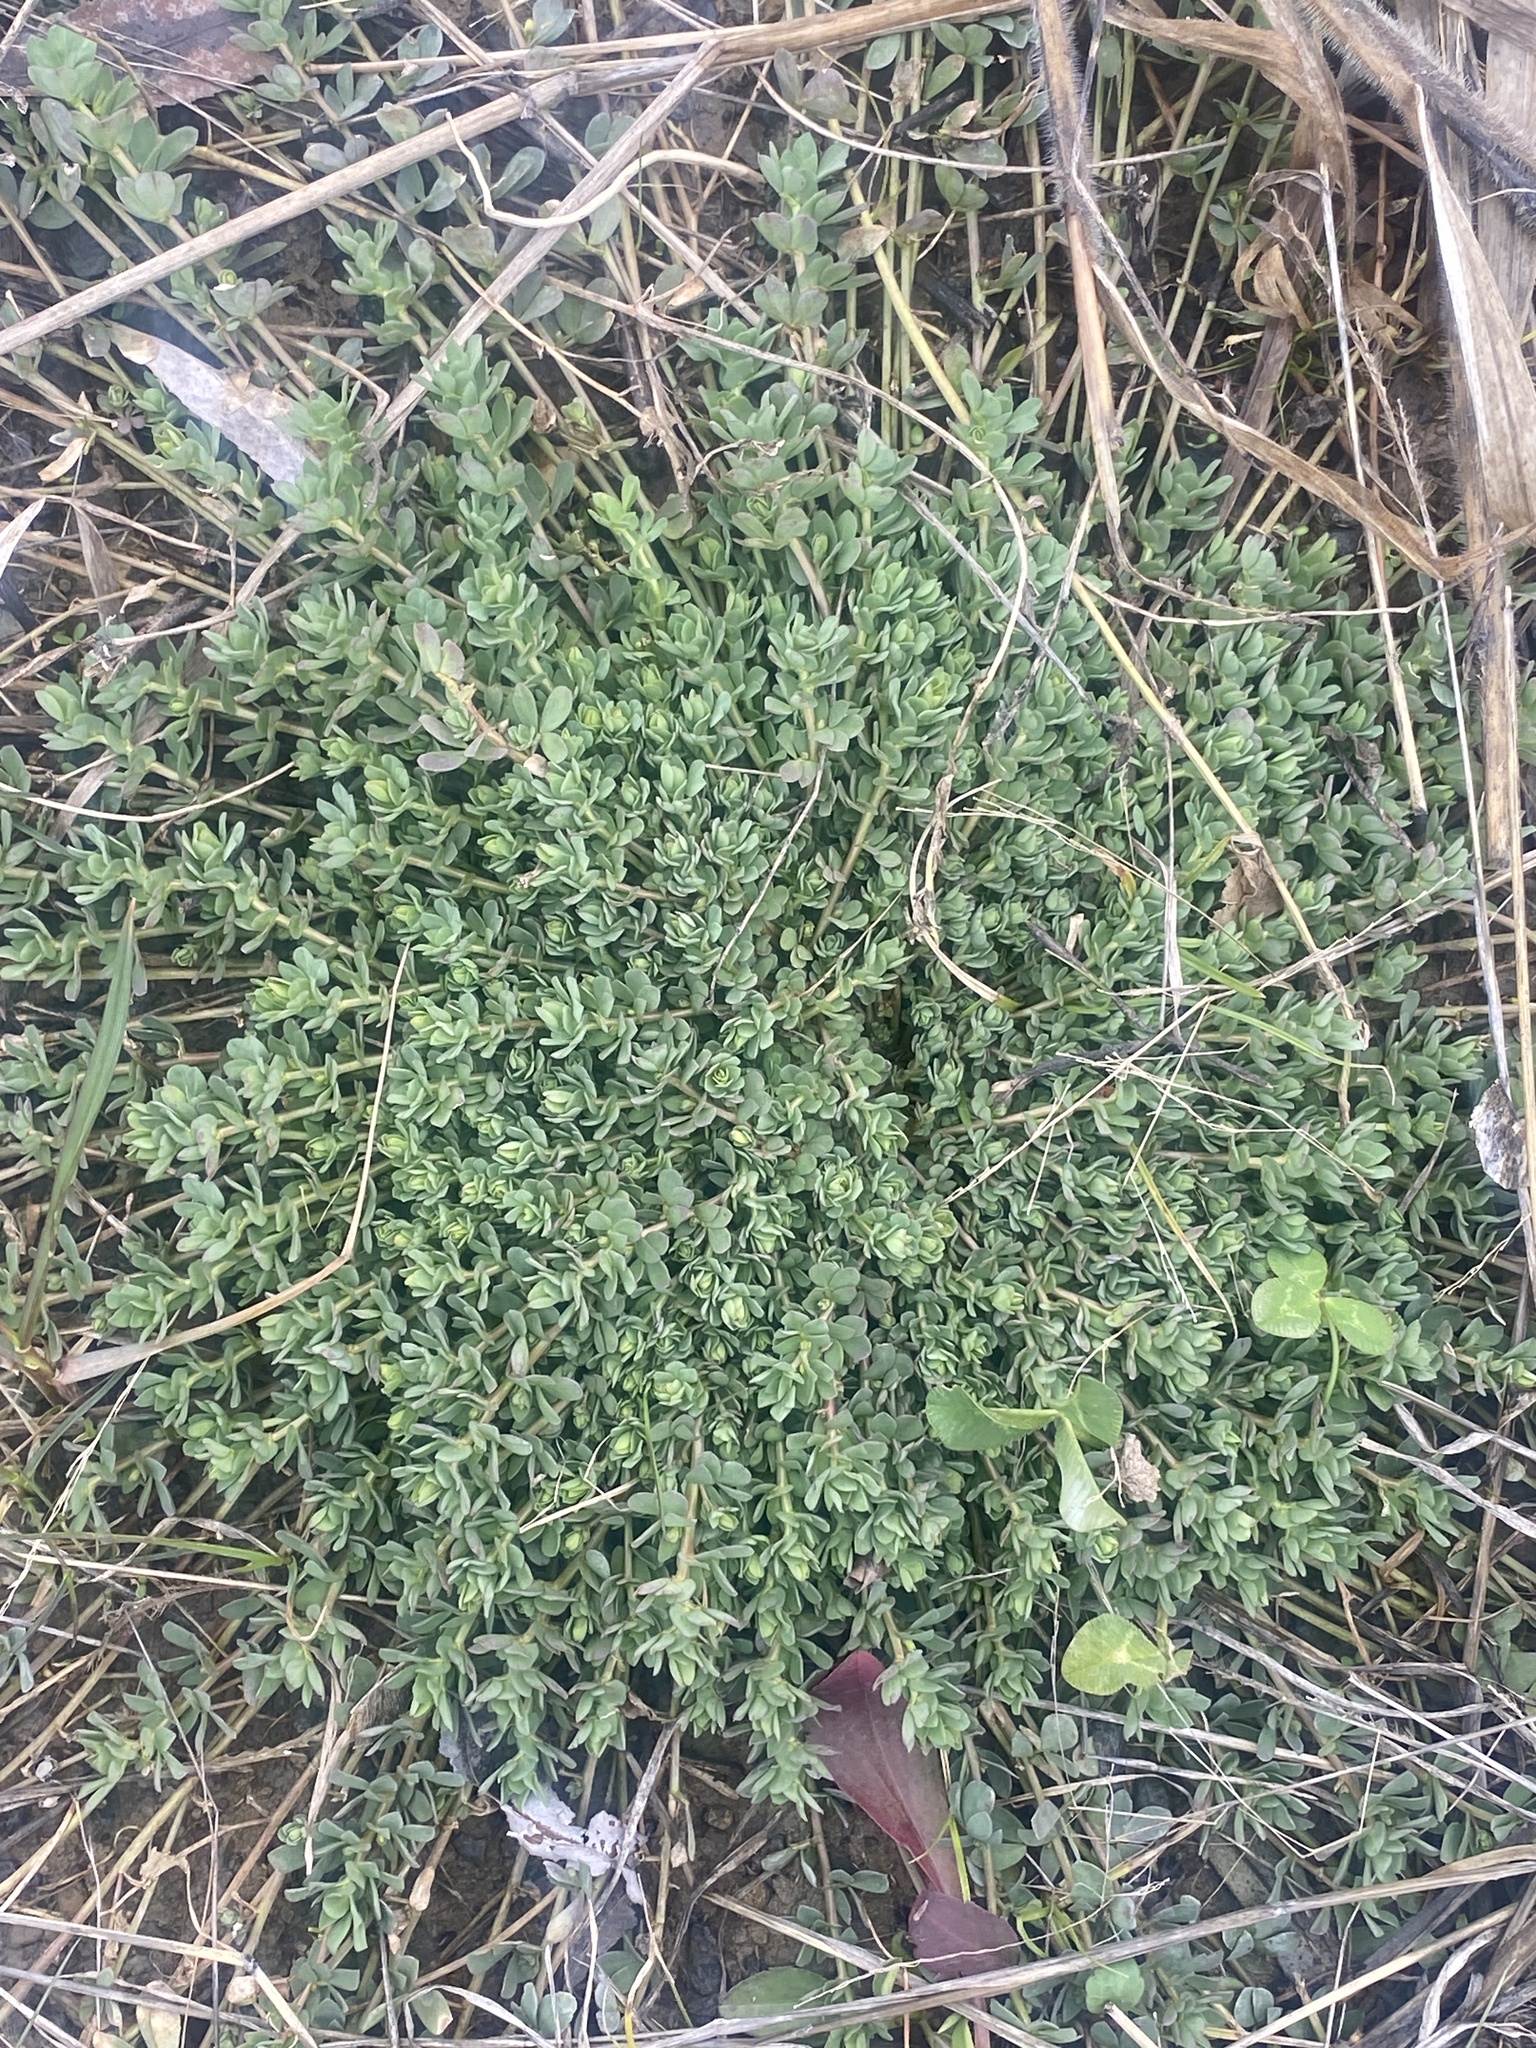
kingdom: Plantae
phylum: Tracheophyta
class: Magnoliopsida
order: Fabales
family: Fabaceae
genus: Lotus
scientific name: Lotus corniculatus
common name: Common bird's-foot-trefoil
